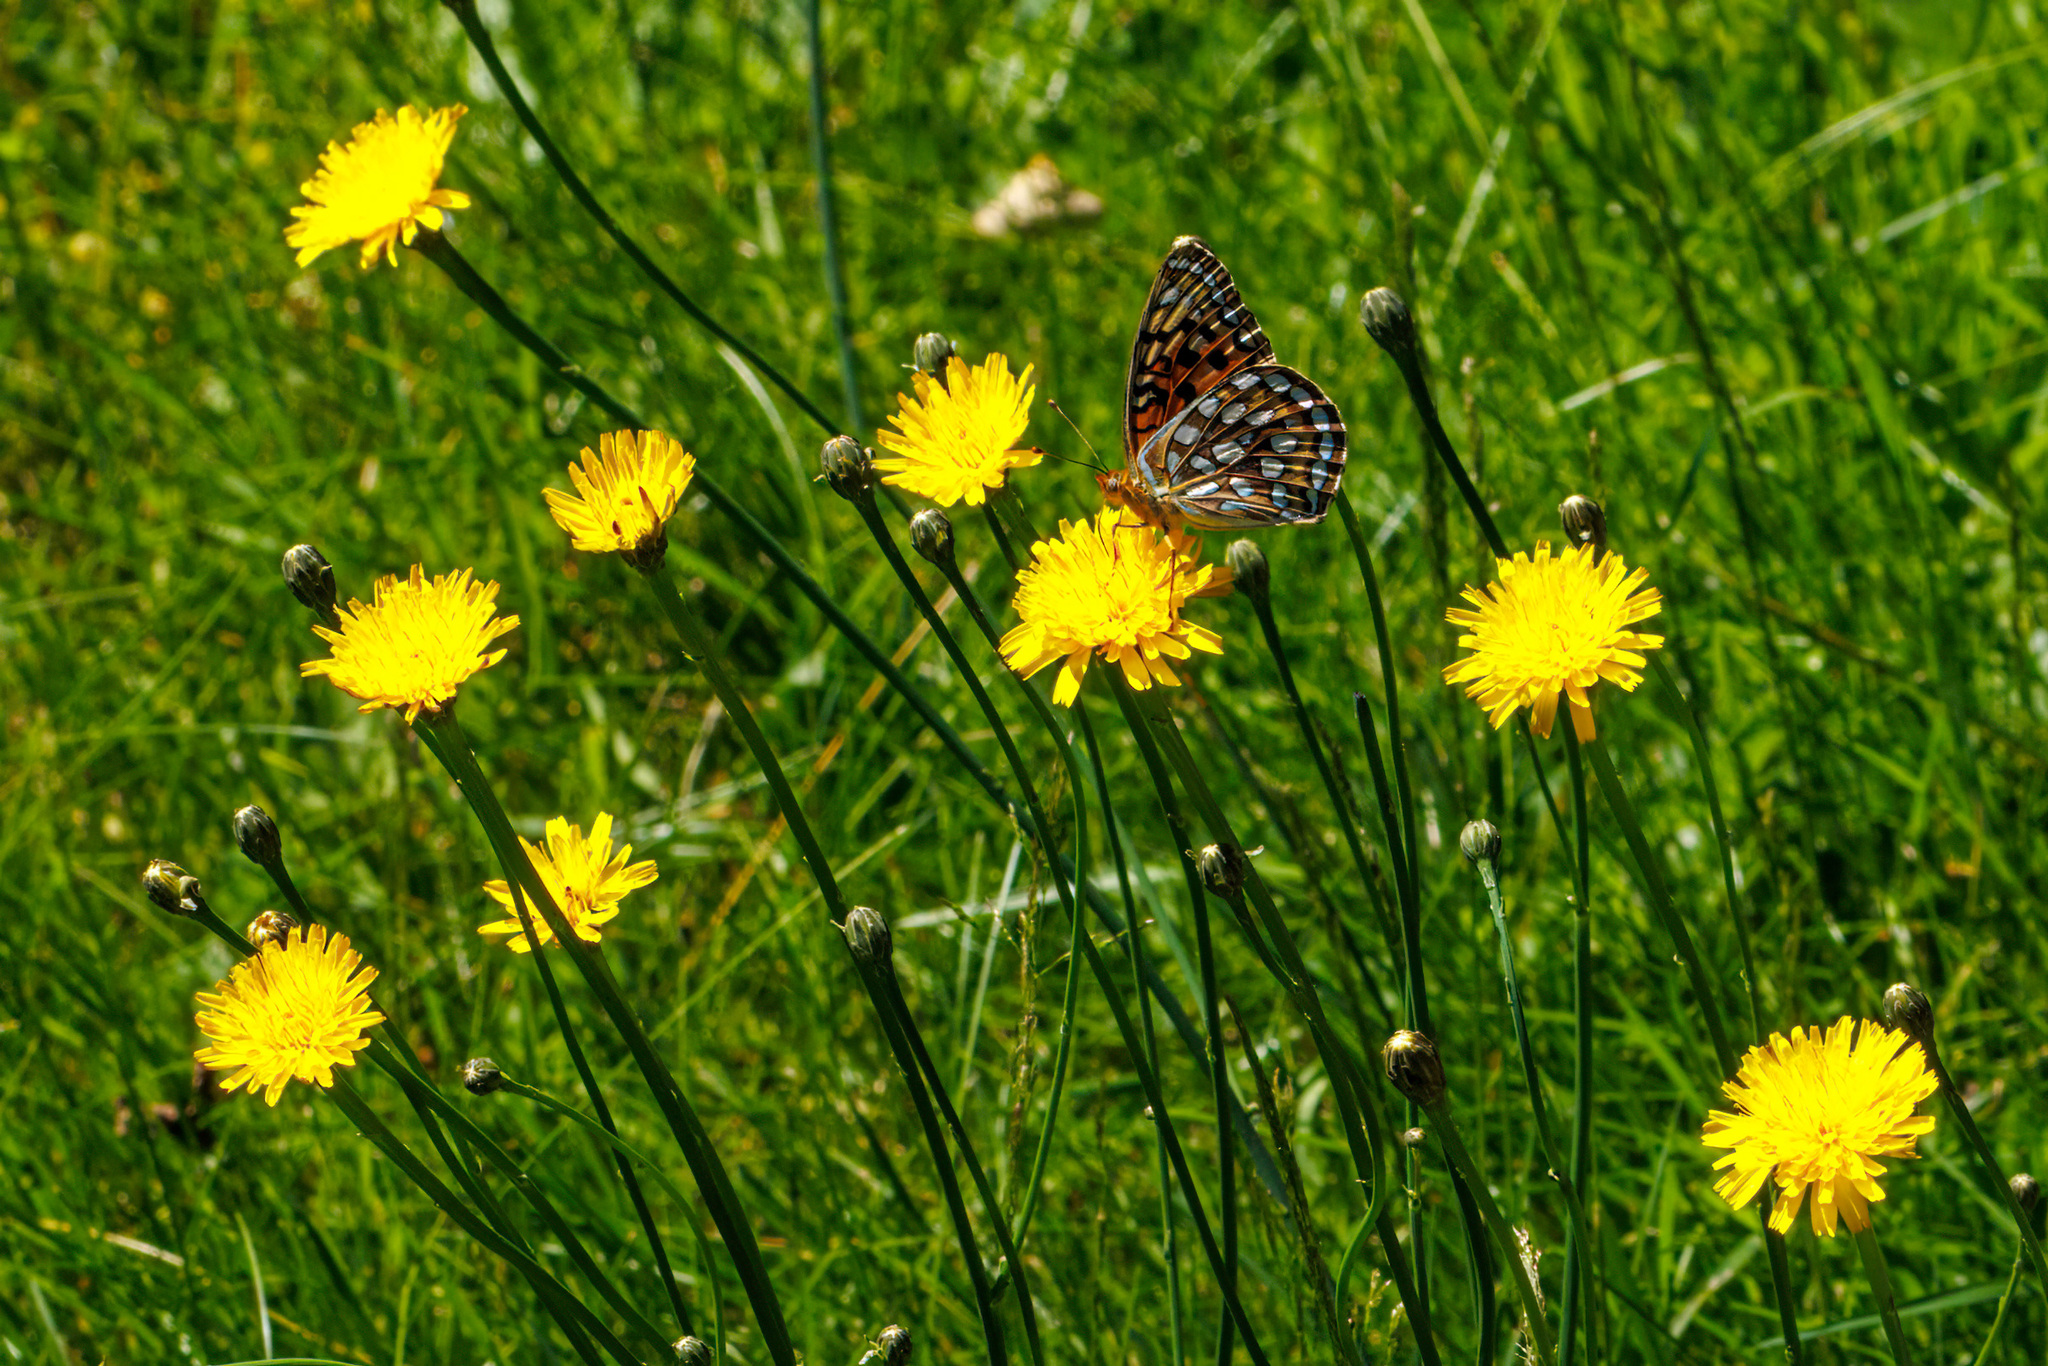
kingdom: Animalia
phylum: Arthropoda
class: Insecta
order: Lepidoptera
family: Nymphalidae
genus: Speyeria
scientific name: Speyeria zerene
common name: Zerene fritillary
